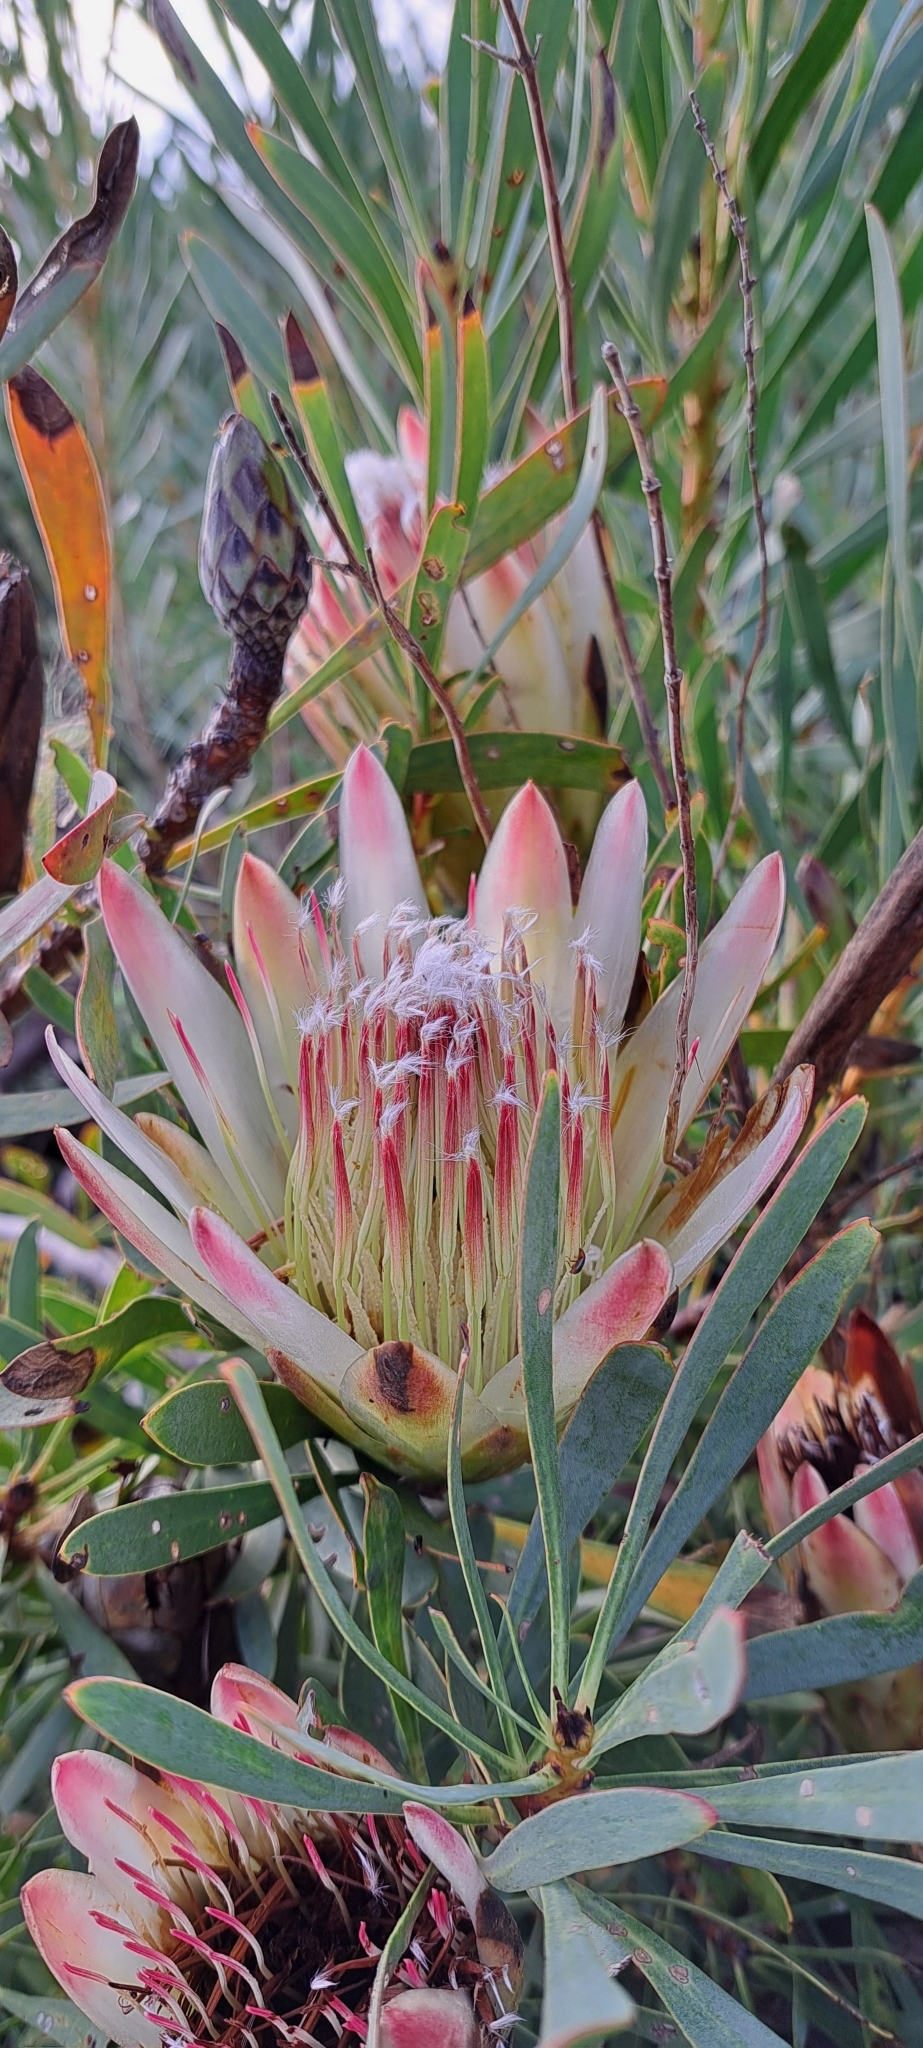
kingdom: Plantae
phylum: Tracheophyta
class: Magnoliopsida
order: Proteales
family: Proteaceae
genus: Protea
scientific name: Protea repens
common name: Sugarbush
